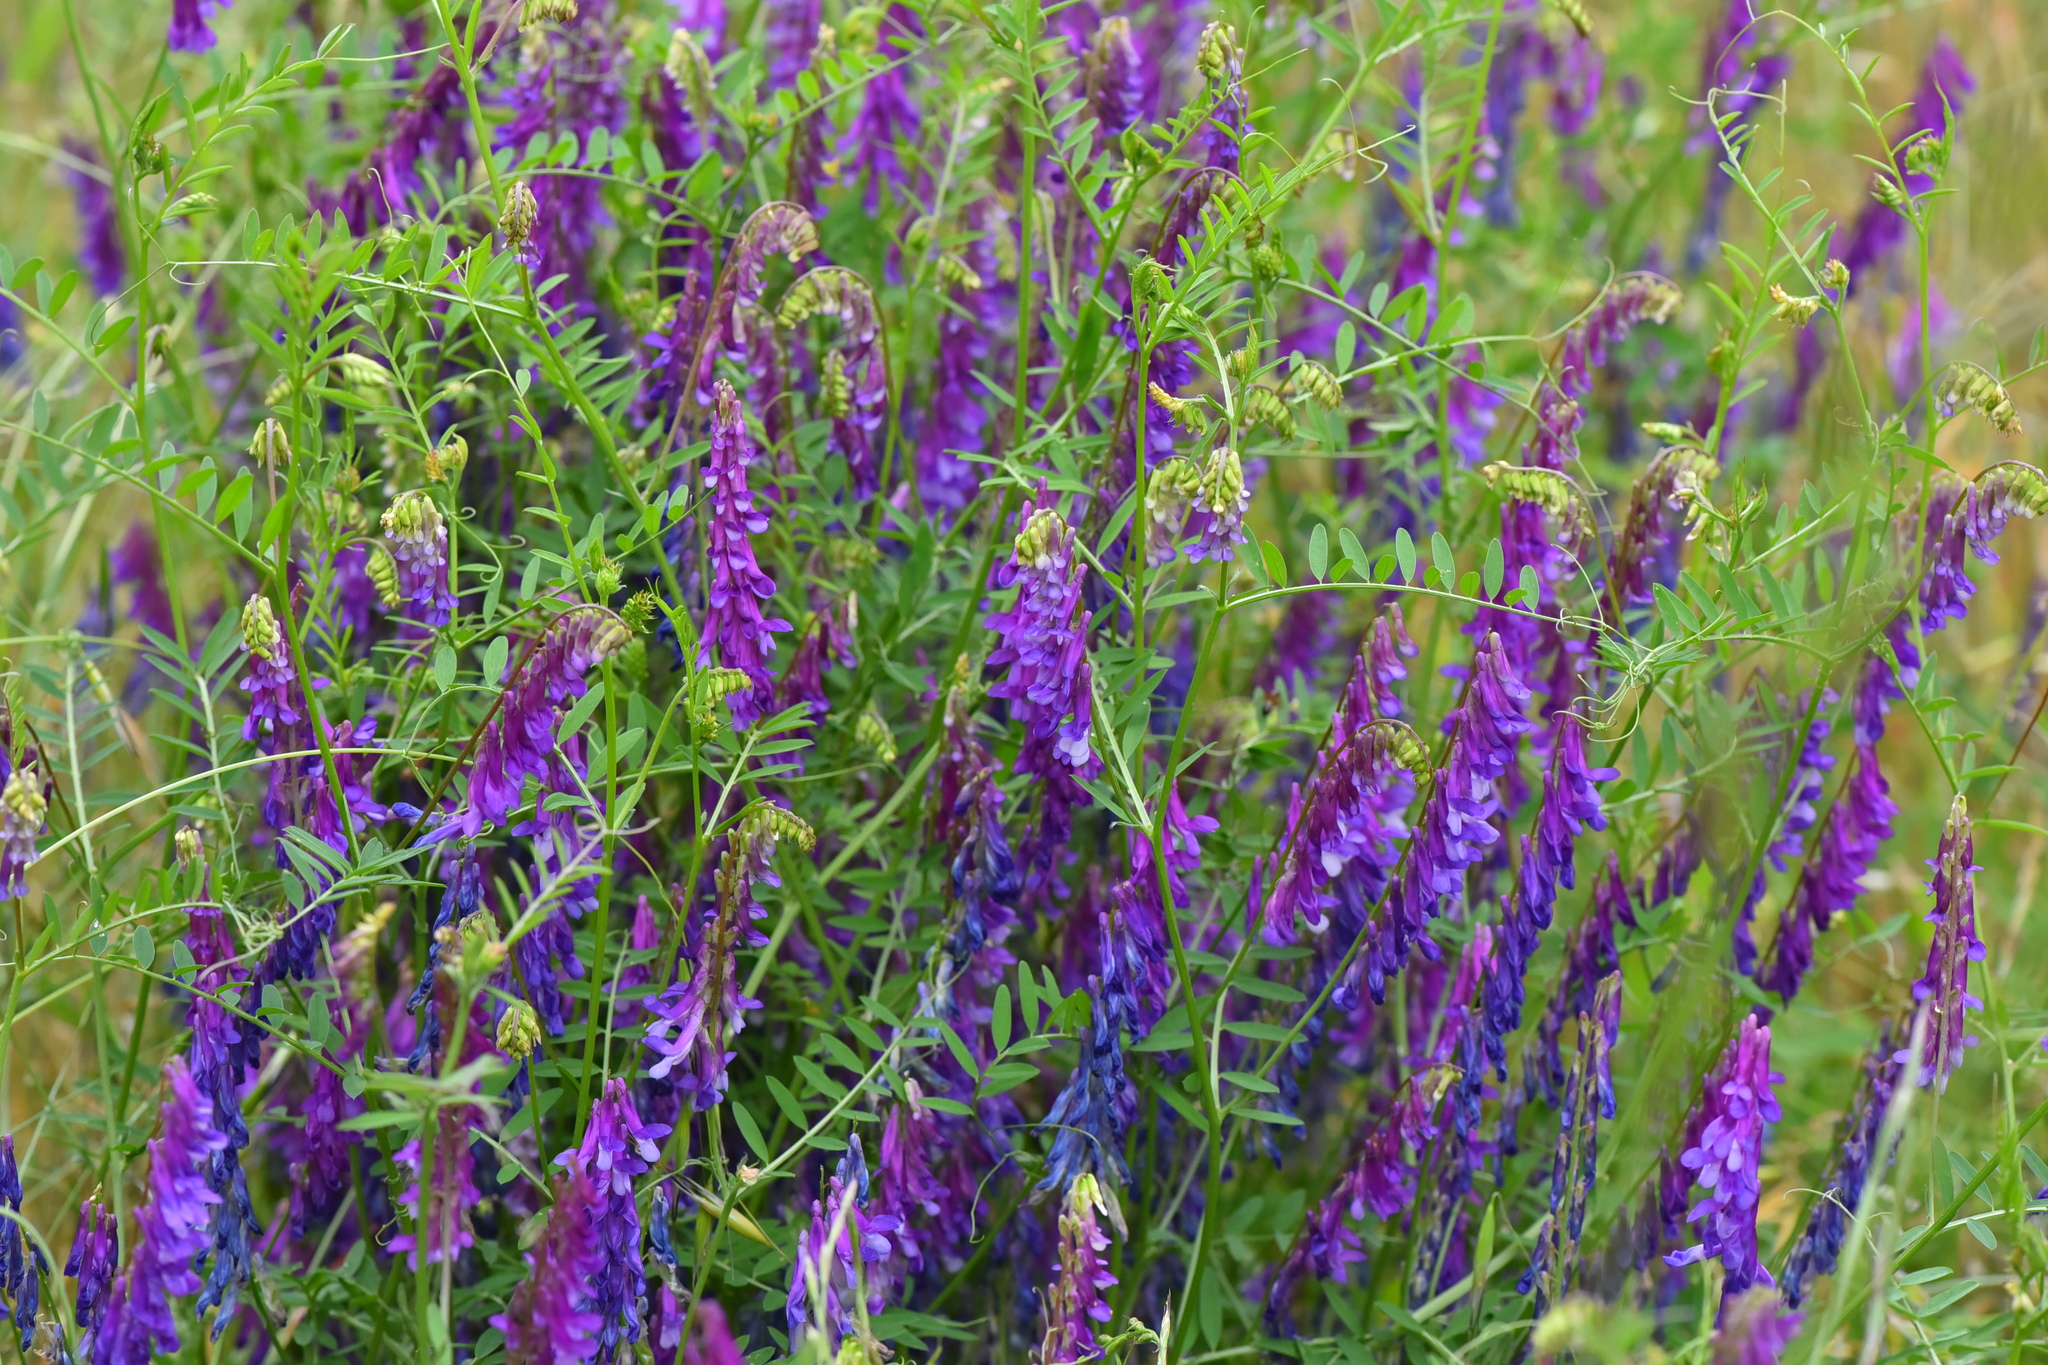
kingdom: Plantae
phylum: Tracheophyta
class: Magnoliopsida
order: Fabales
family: Fabaceae
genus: Vicia
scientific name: Vicia villosa
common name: Fodder vetch
